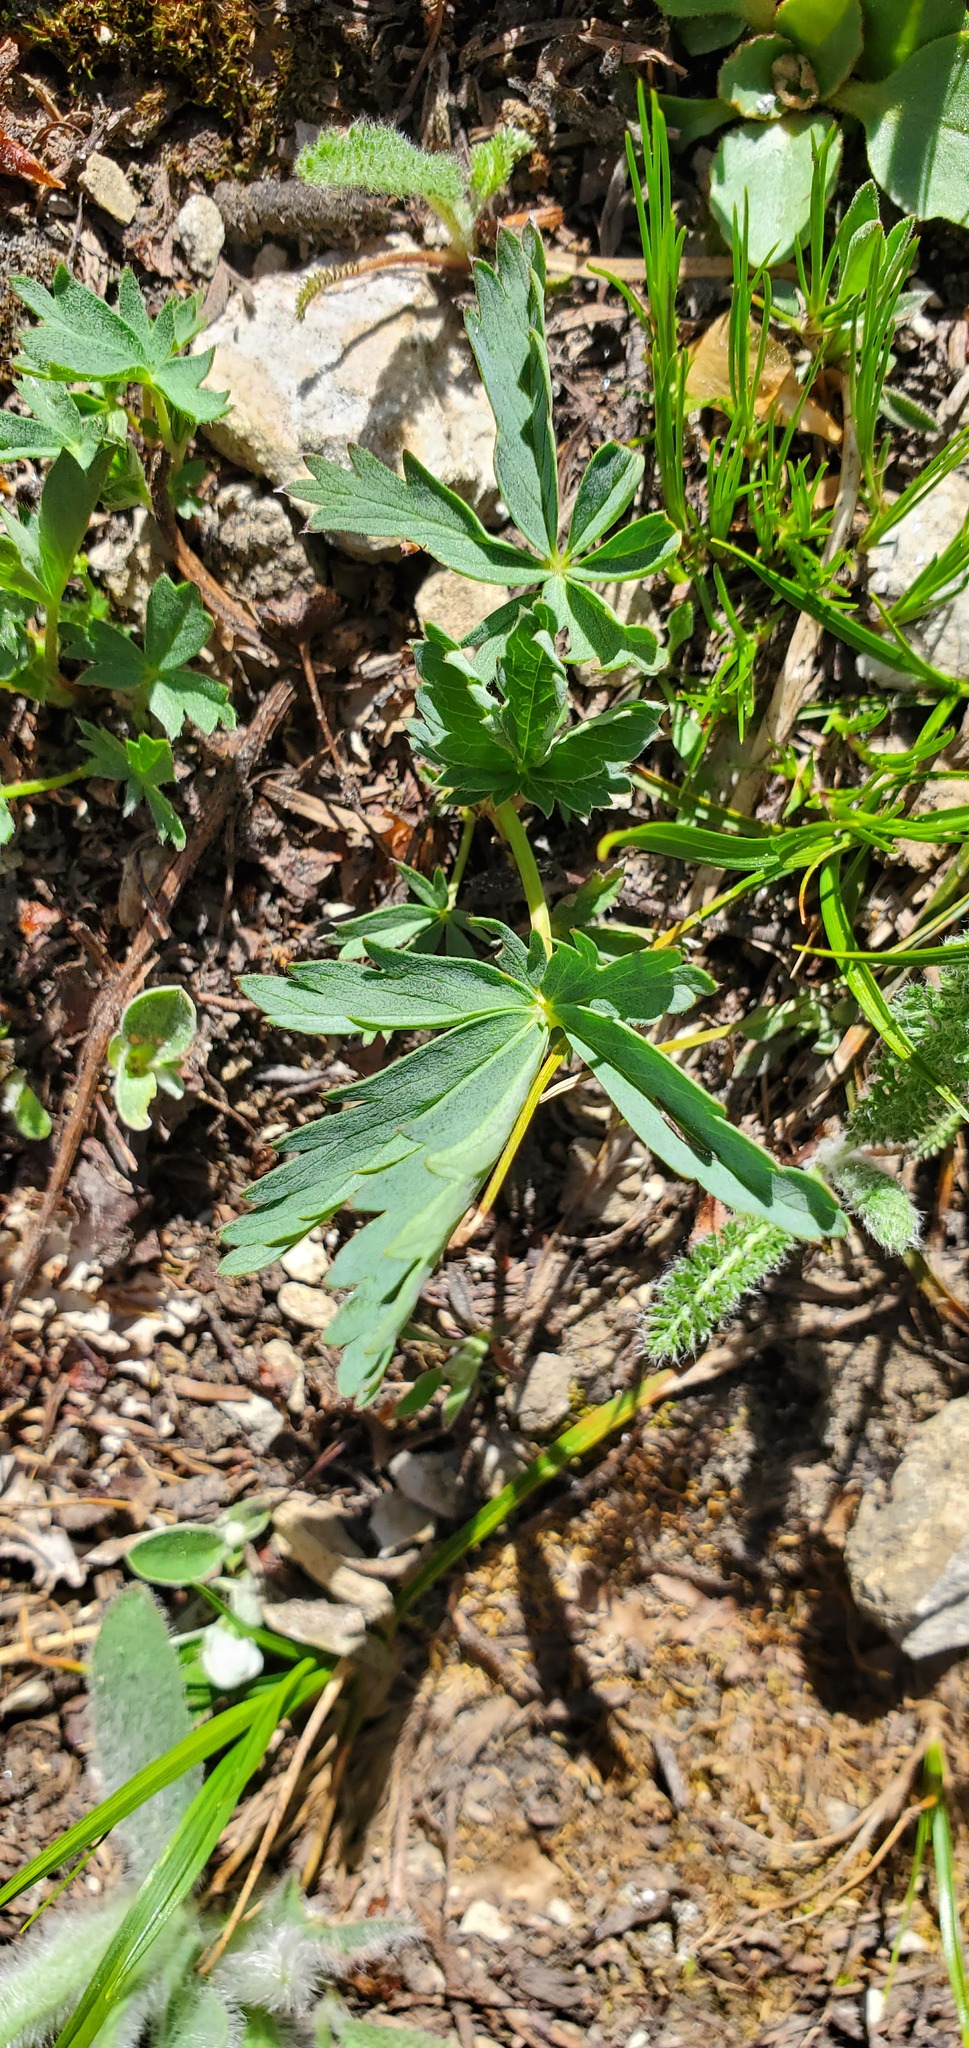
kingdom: Plantae
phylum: Tracheophyta
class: Magnoliopsida
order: Rosales
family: Rosaceae
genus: Potentilla
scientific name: Potentilla glaucophylla
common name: Blue-leaved cinquefoil
